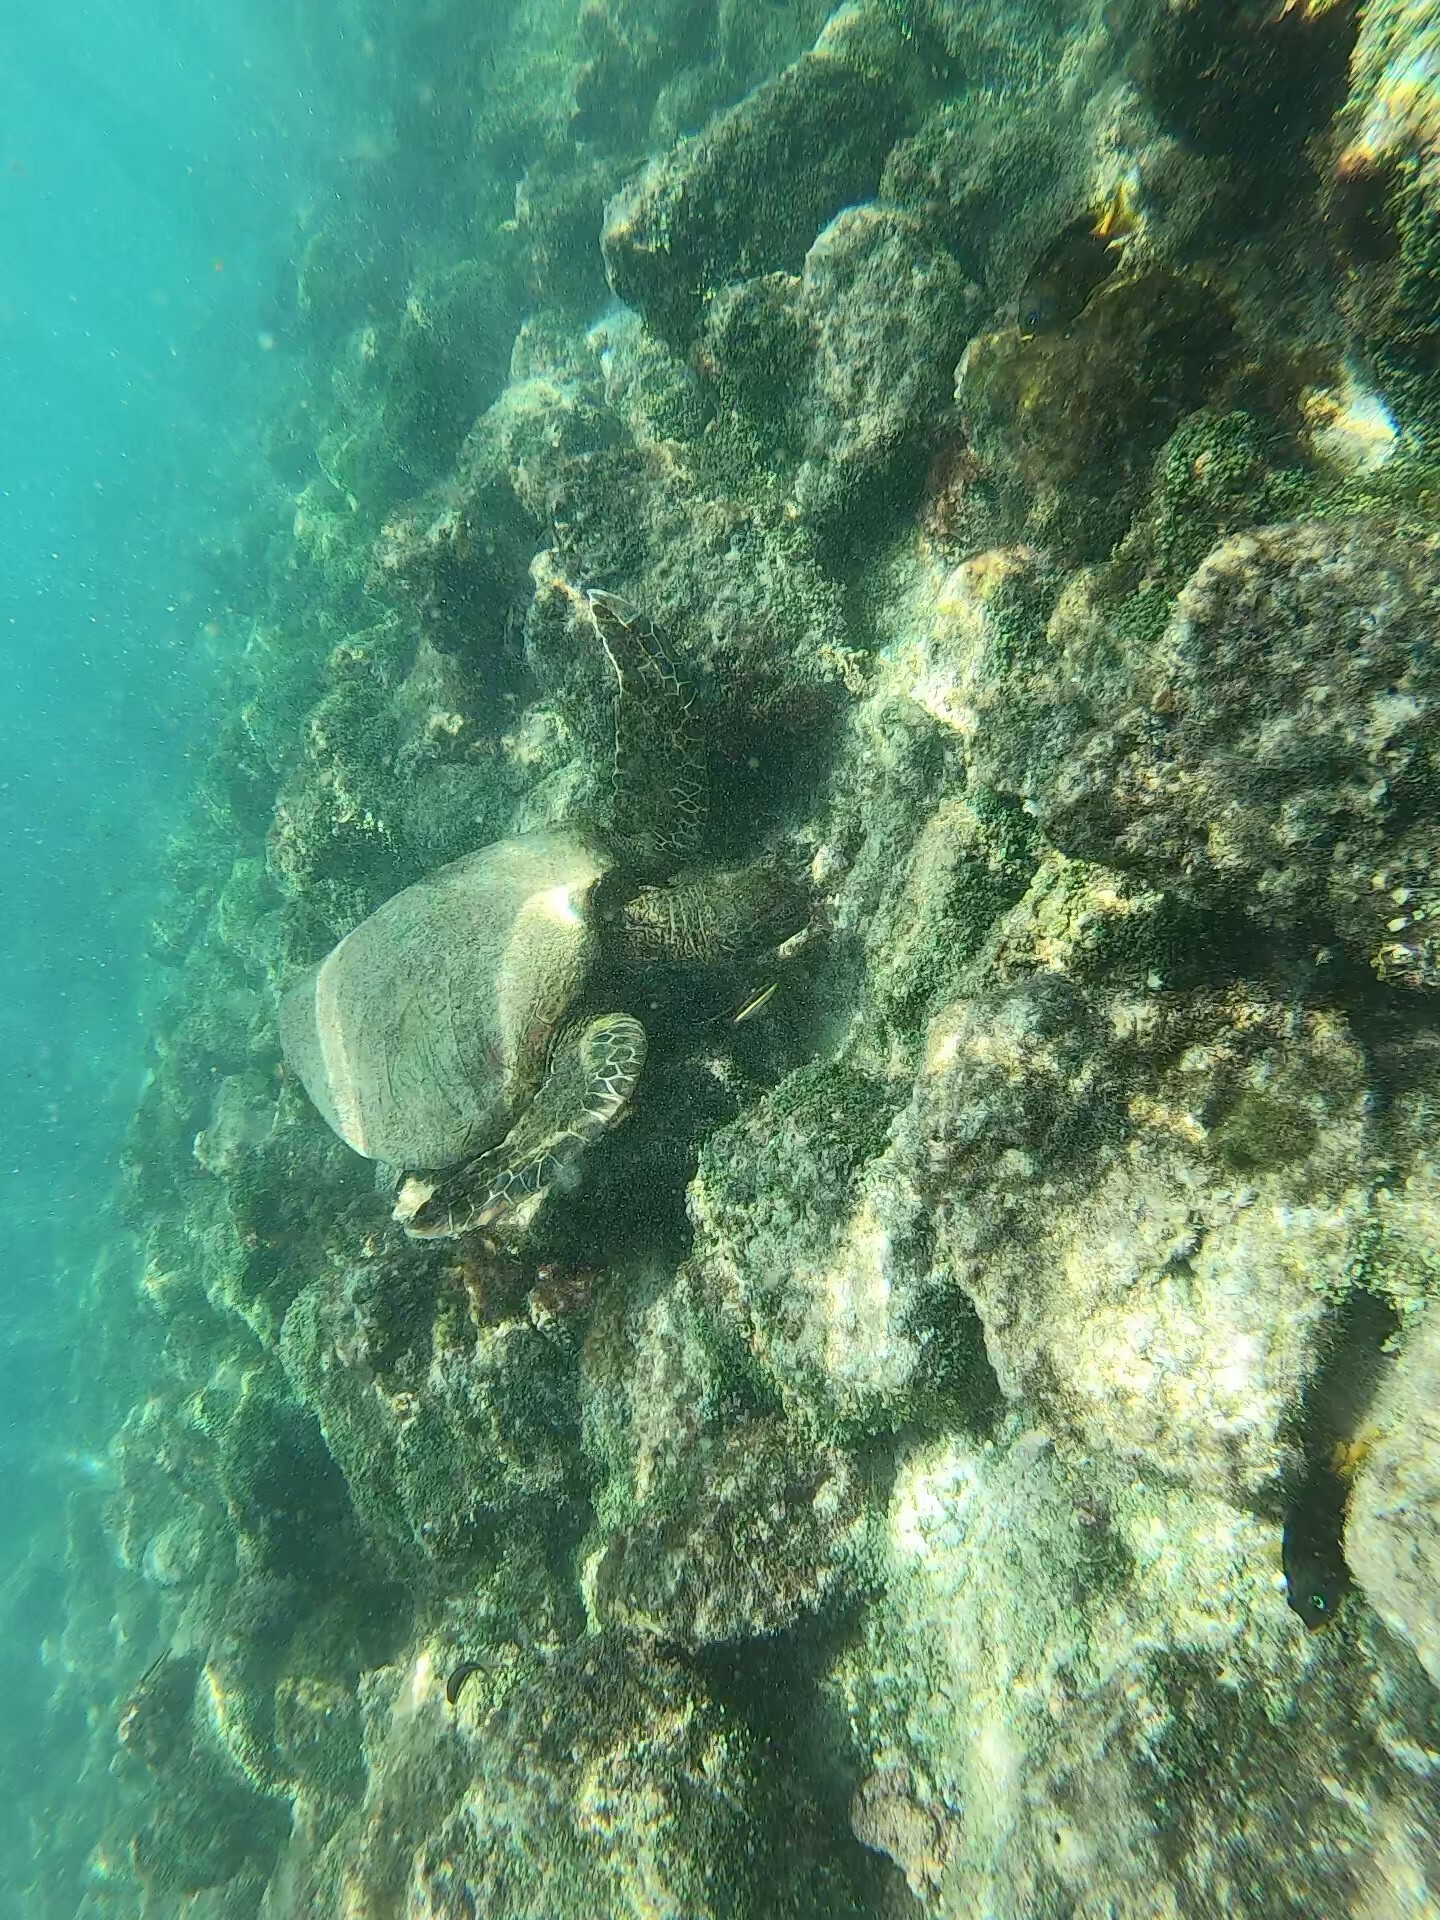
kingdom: Animalia
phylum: Chordata
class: Testudines
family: Cheloniidae
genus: Chelonia
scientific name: Chelonia mydas
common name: Green turtle
